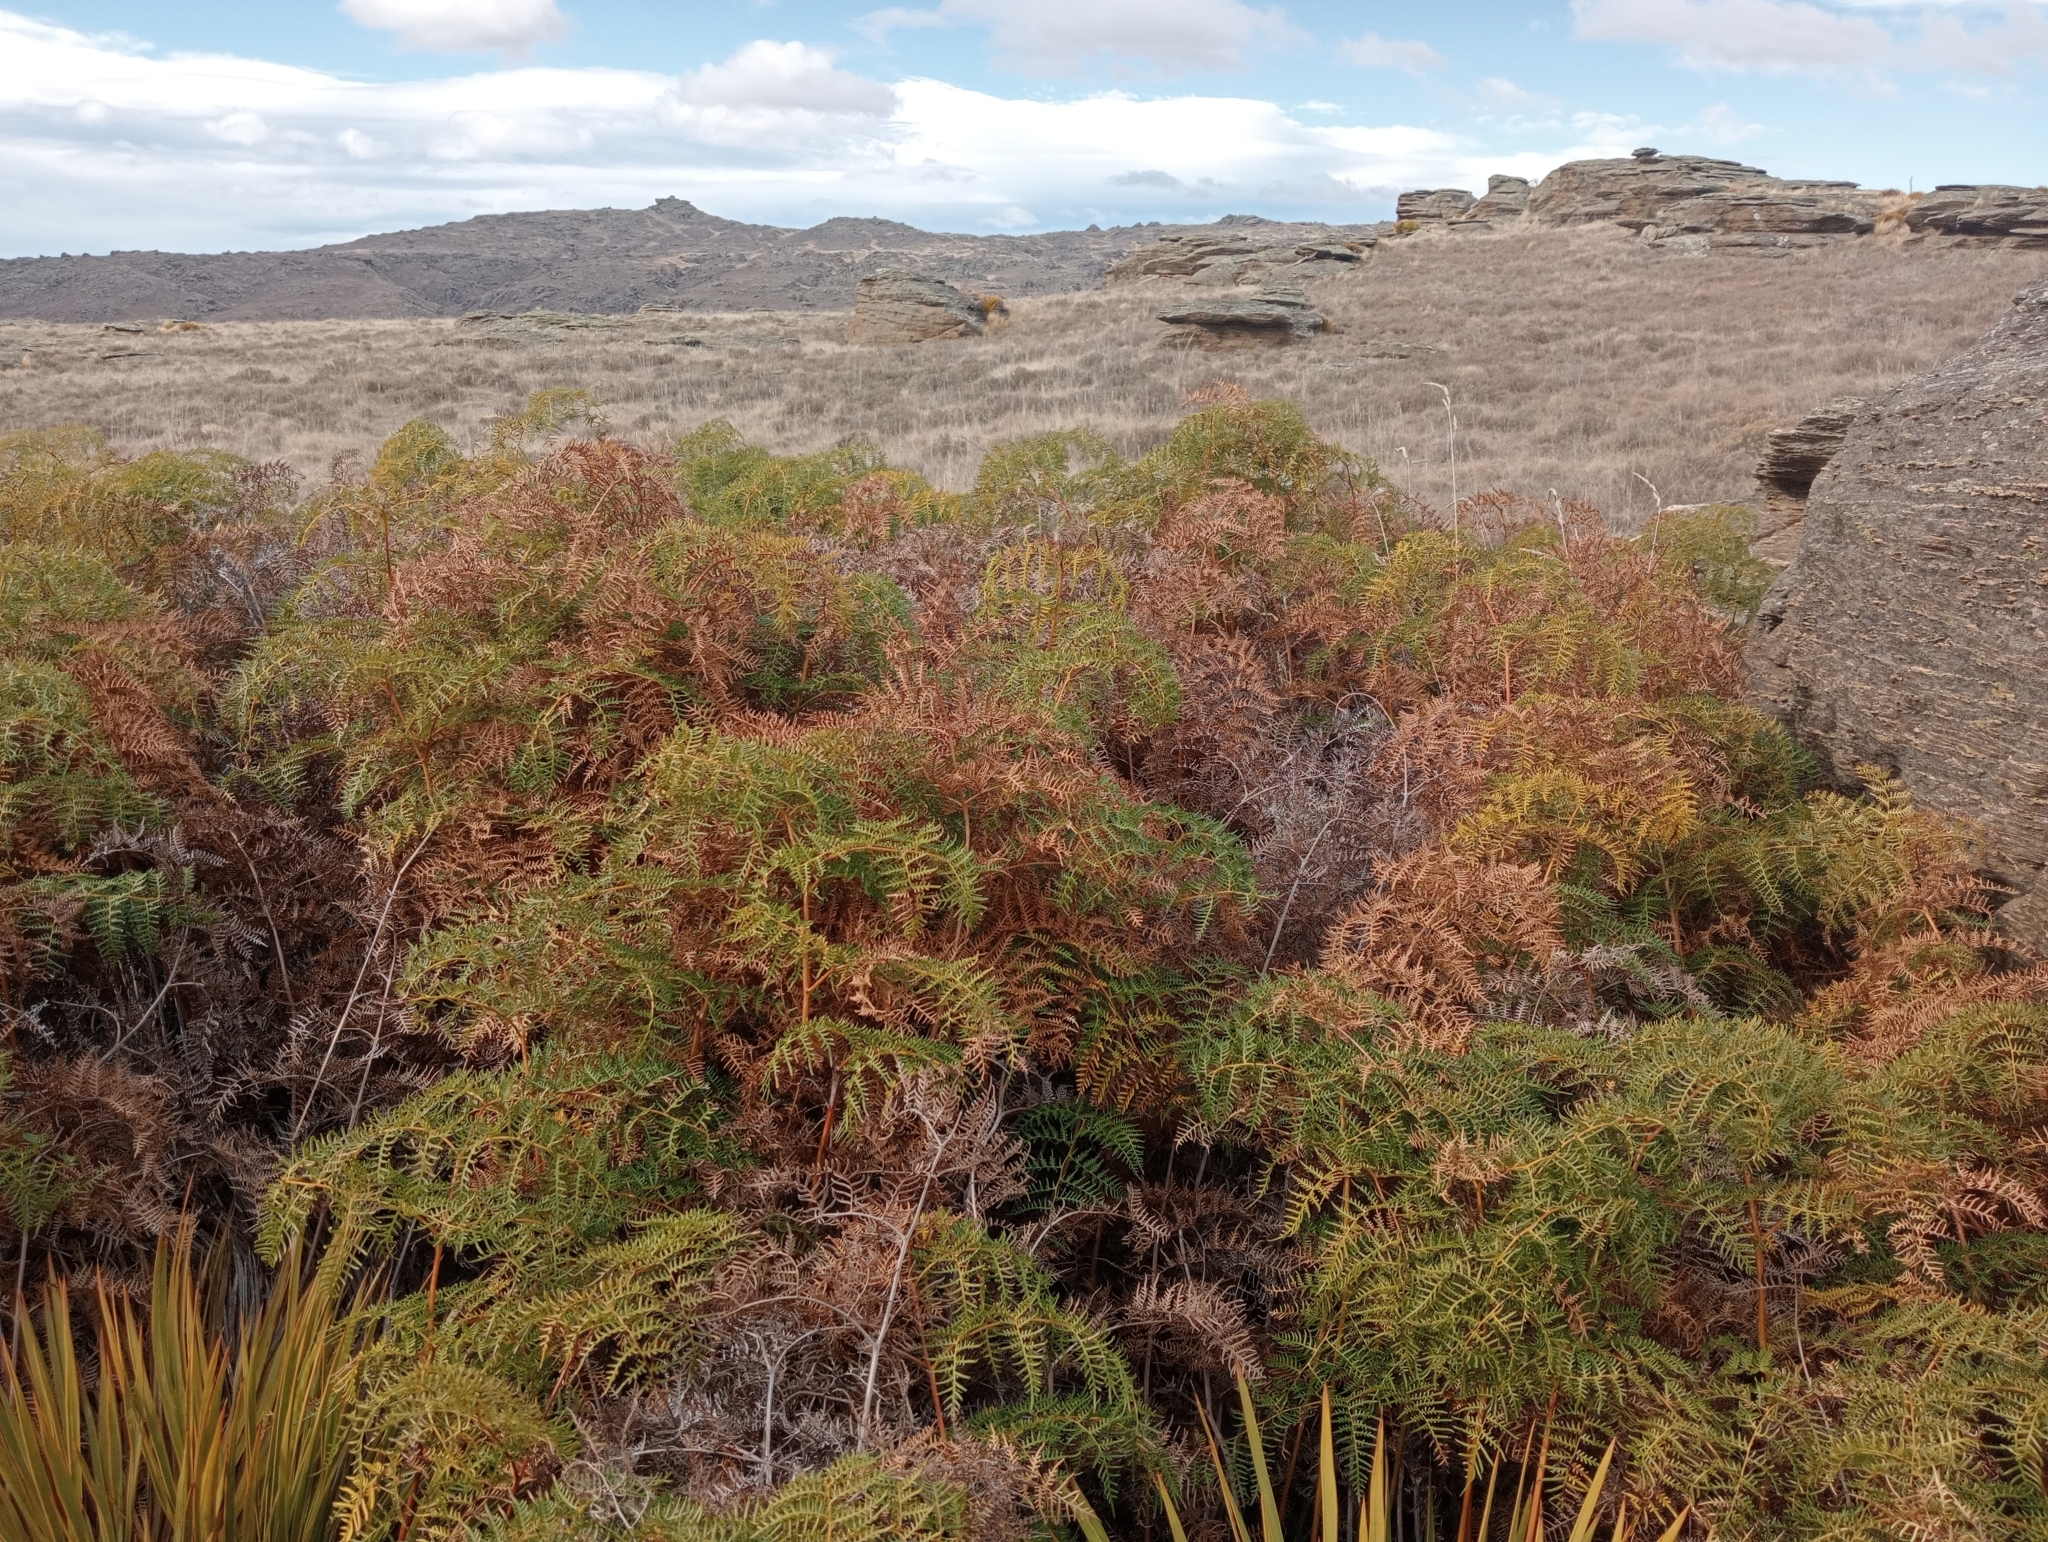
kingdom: Plantae
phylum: Tracheophyta
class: Polypodiopsida
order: Polypodiales
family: Dennstaedtiaceae
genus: Pteridium
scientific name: Pteridium esculentum
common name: Bracken fern
